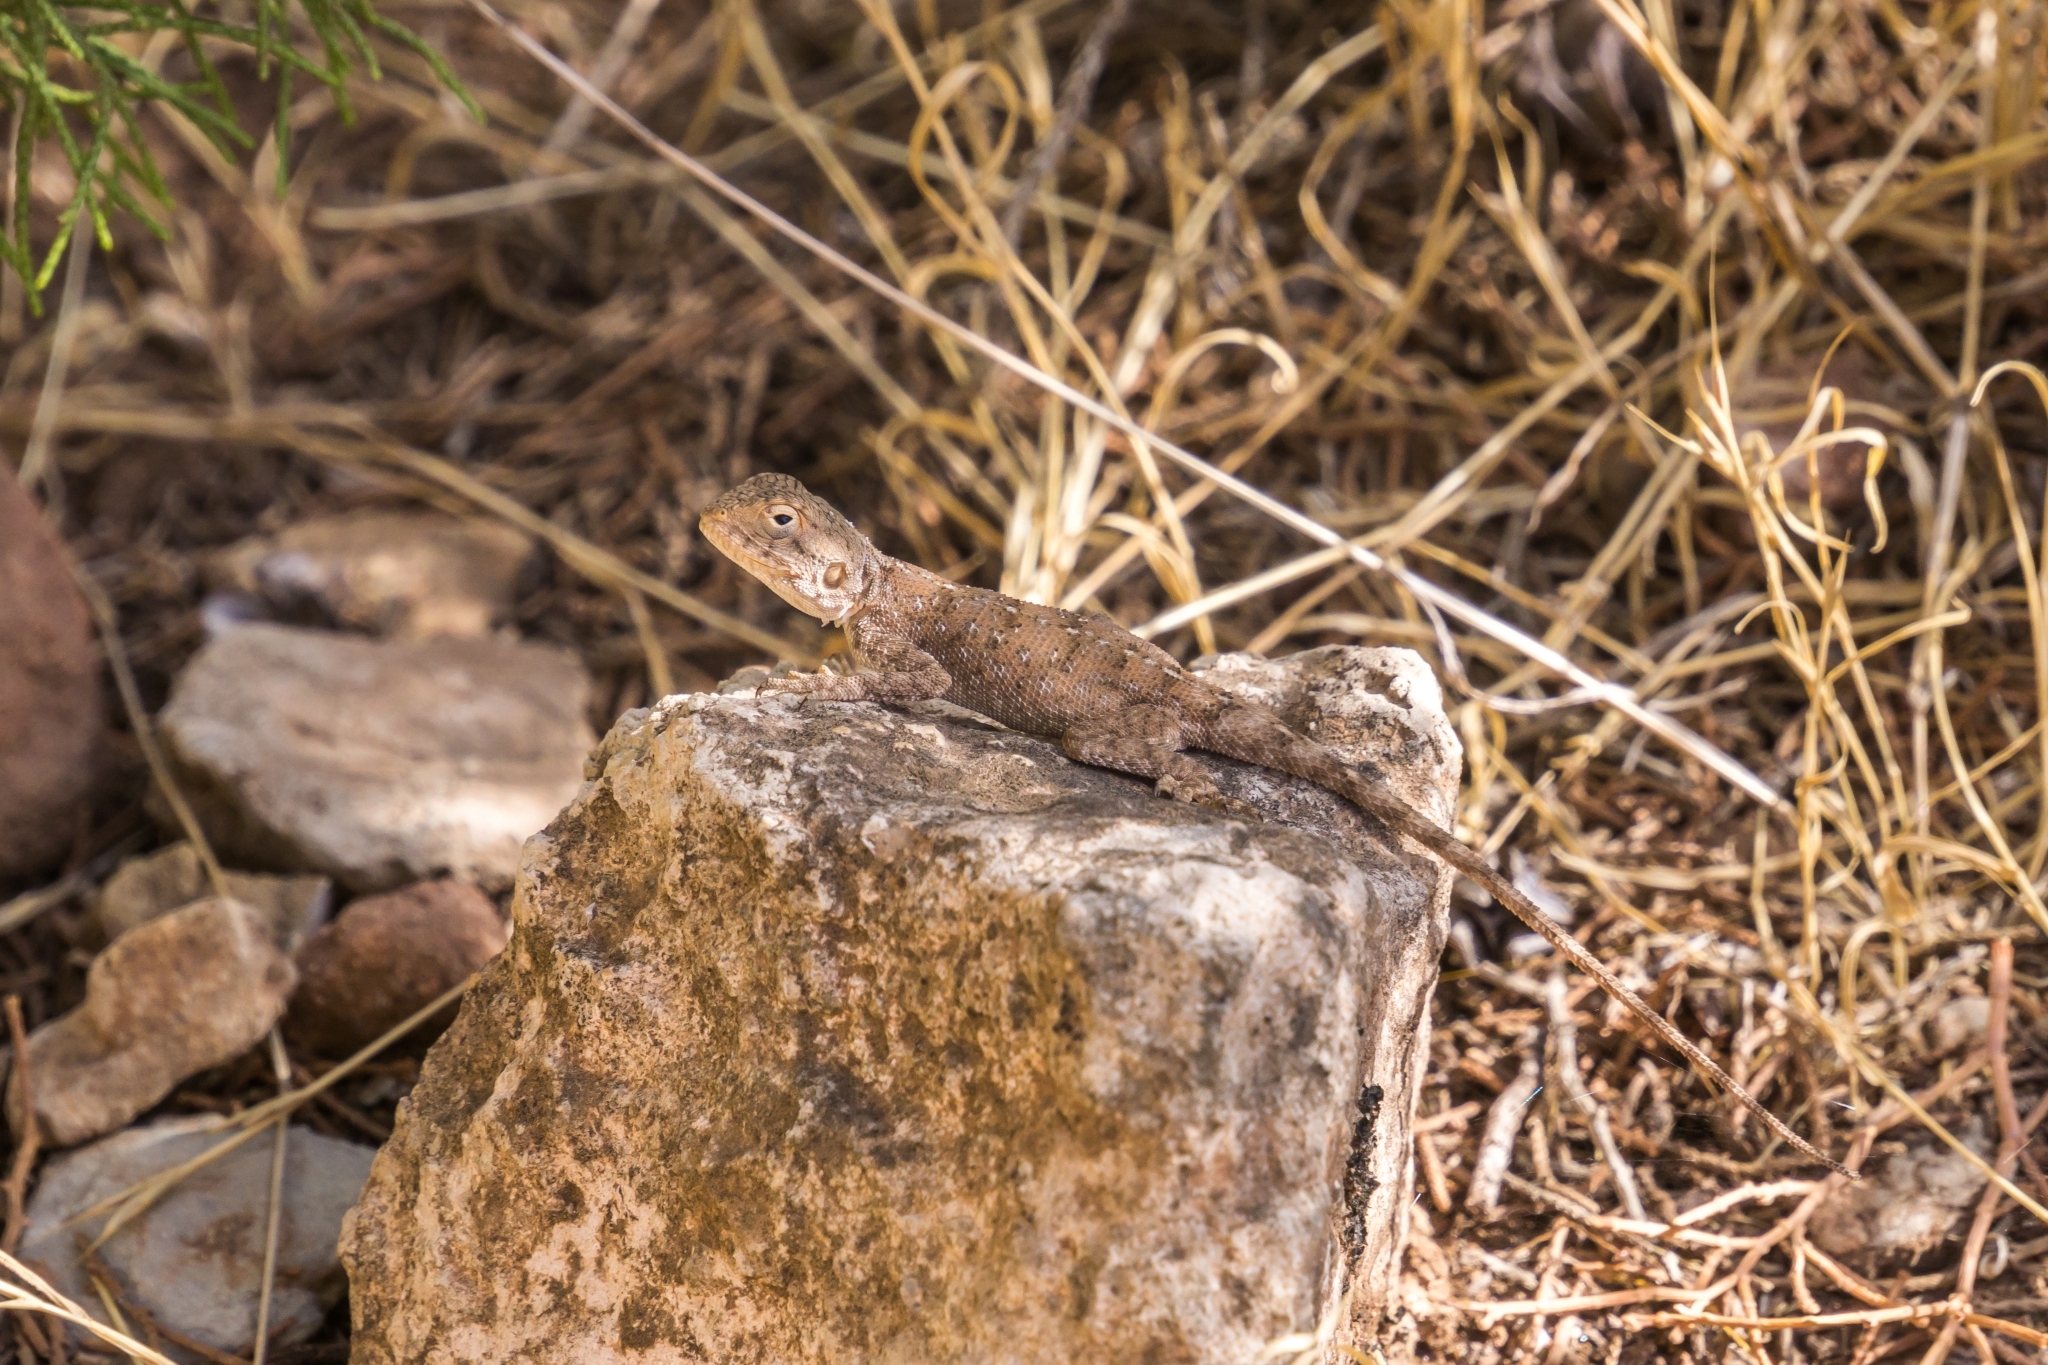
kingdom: Animalia
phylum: Chordata
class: Squamata
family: Agamidae
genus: Agama
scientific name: Agama impalearis
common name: Bibron's agama
